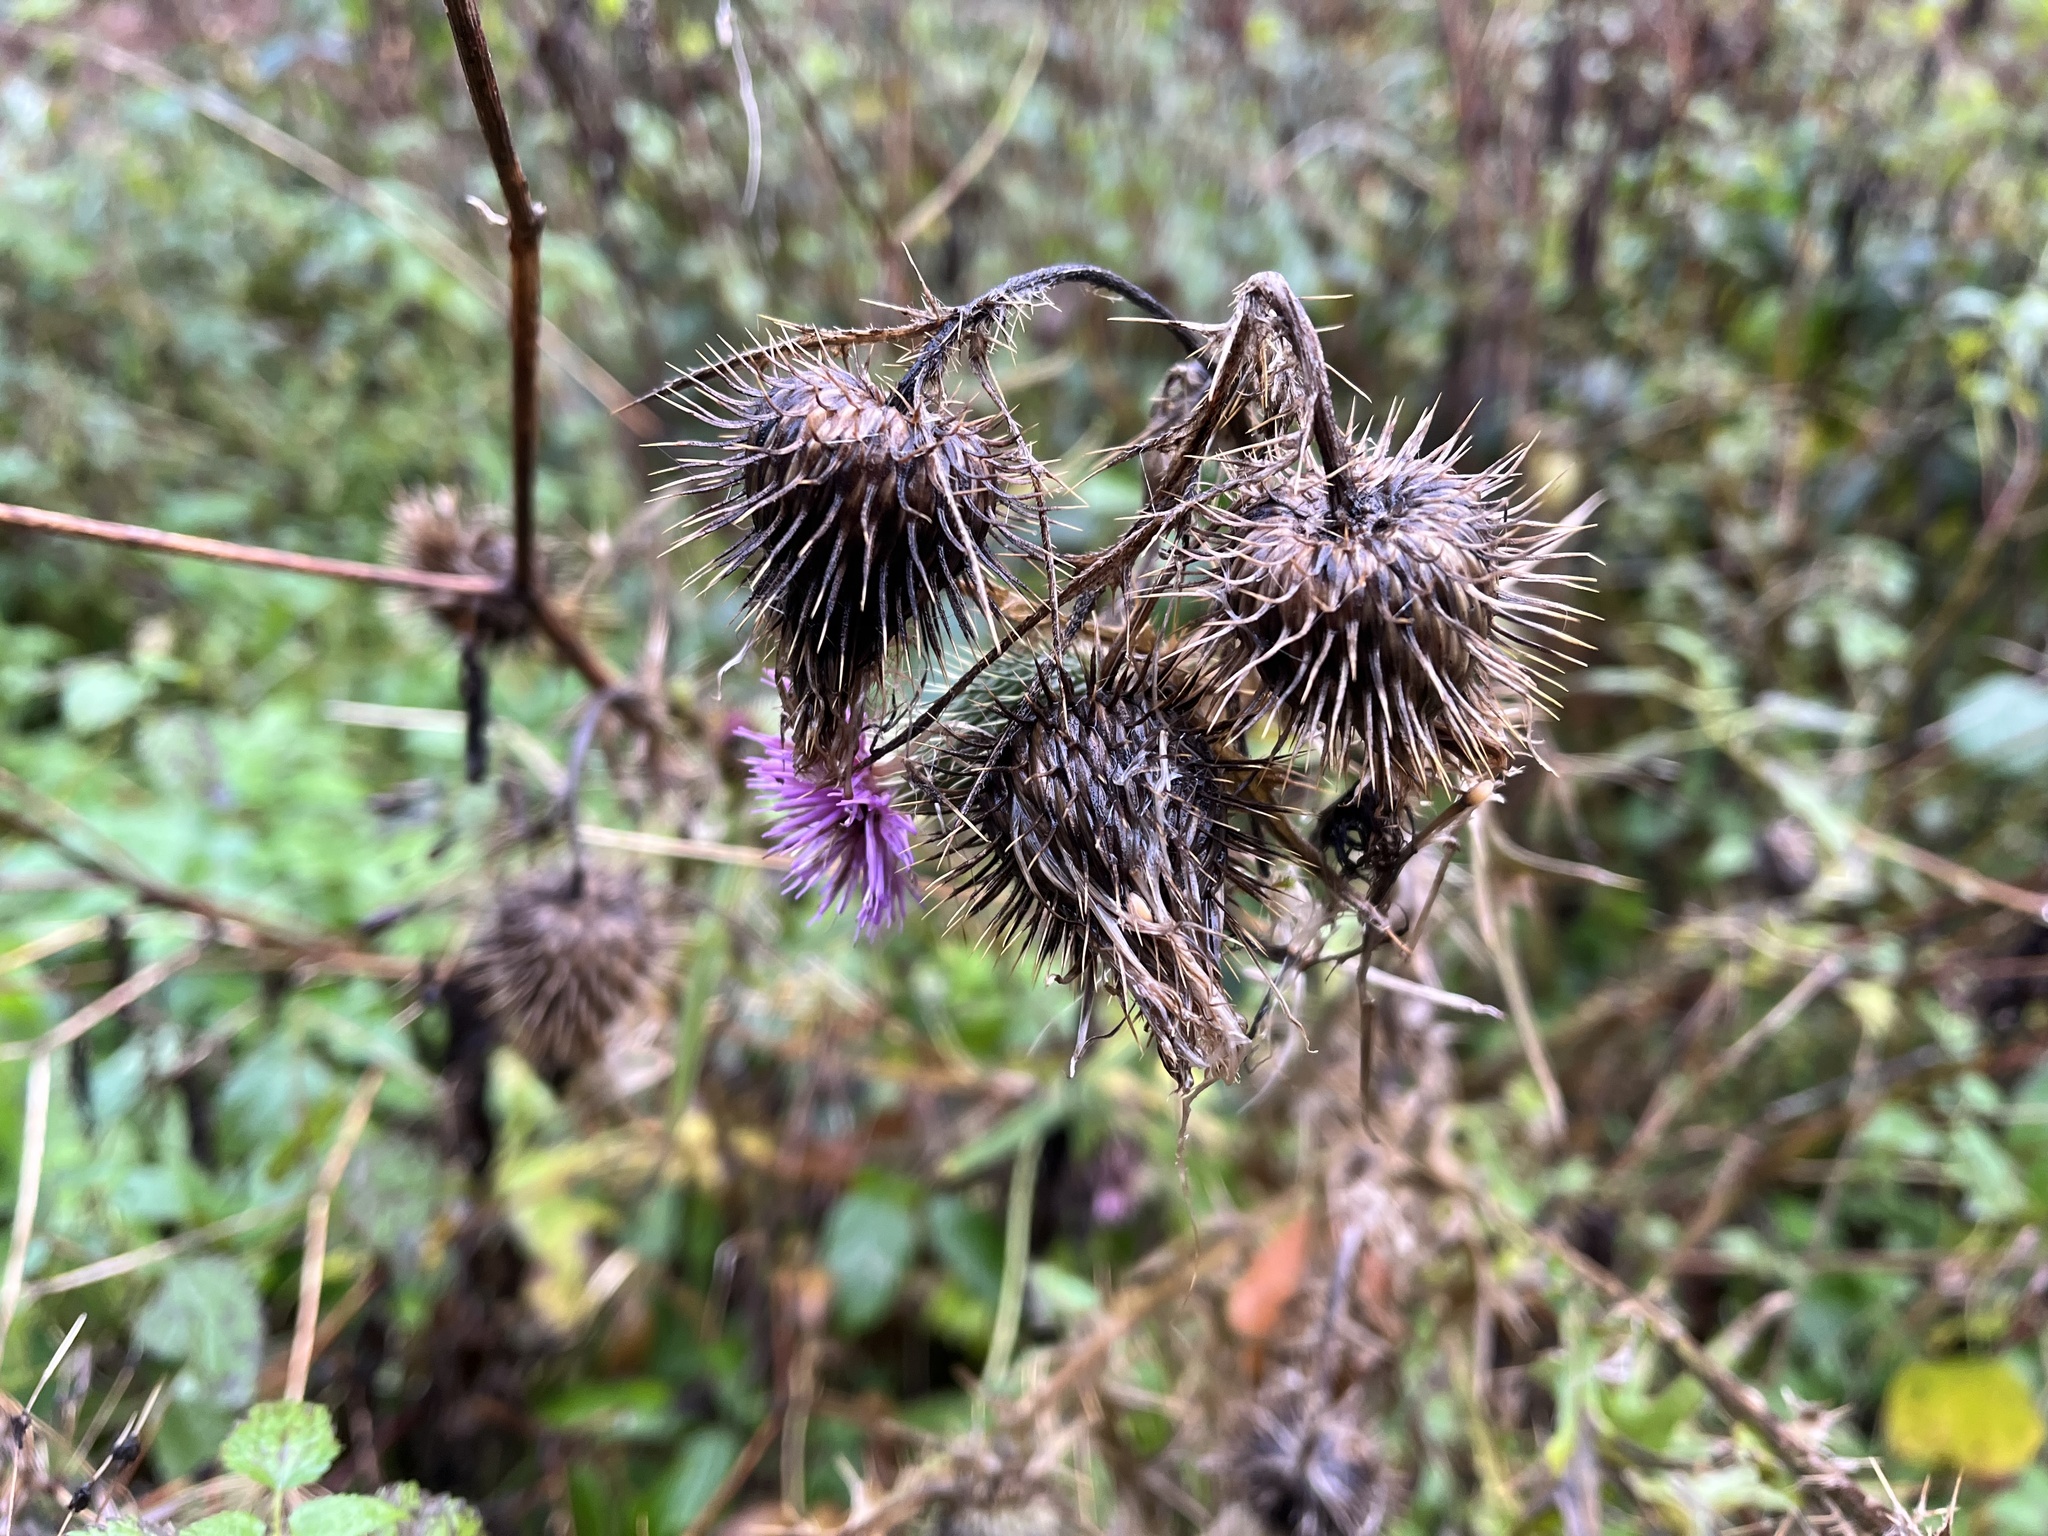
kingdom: Plantae
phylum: Tracheophyta
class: Magnoliopsida
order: Asterales
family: Asteraceae
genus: Cirsium
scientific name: Cirsium vulgare
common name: Bull thistle
